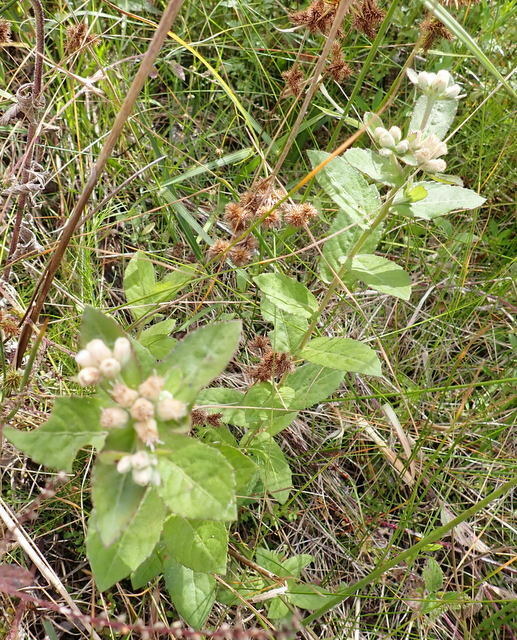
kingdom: Plantae
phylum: Tracheophyta
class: Magnoliopsida
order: Asterales
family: Asteraceae
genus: Pluchea
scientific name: Pluchea foetida
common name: Stinking camphorweed
